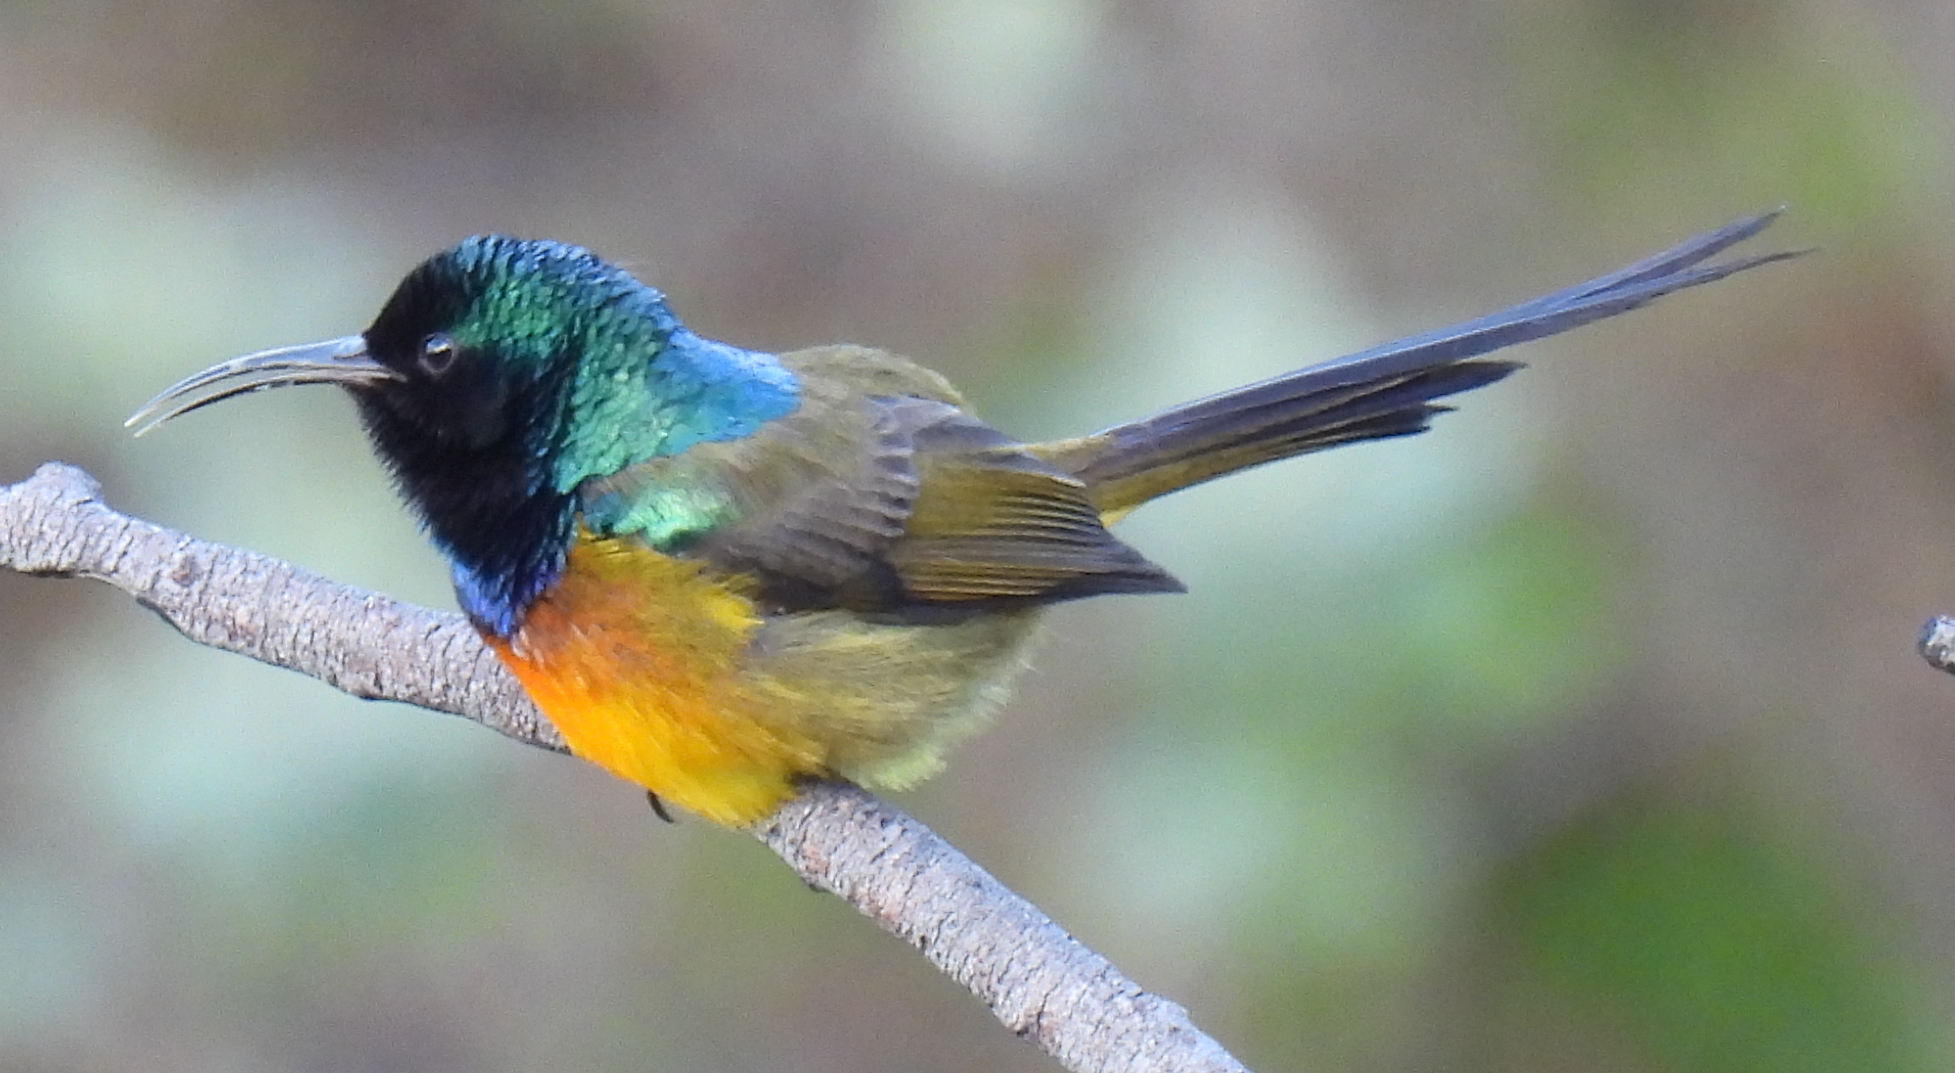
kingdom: Animalia
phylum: Chordata
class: Aves
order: Passeriformes
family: Nectariniidae
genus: Anthobaphes
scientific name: Anthobaphes violacea
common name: Orange-breasted sunbird
